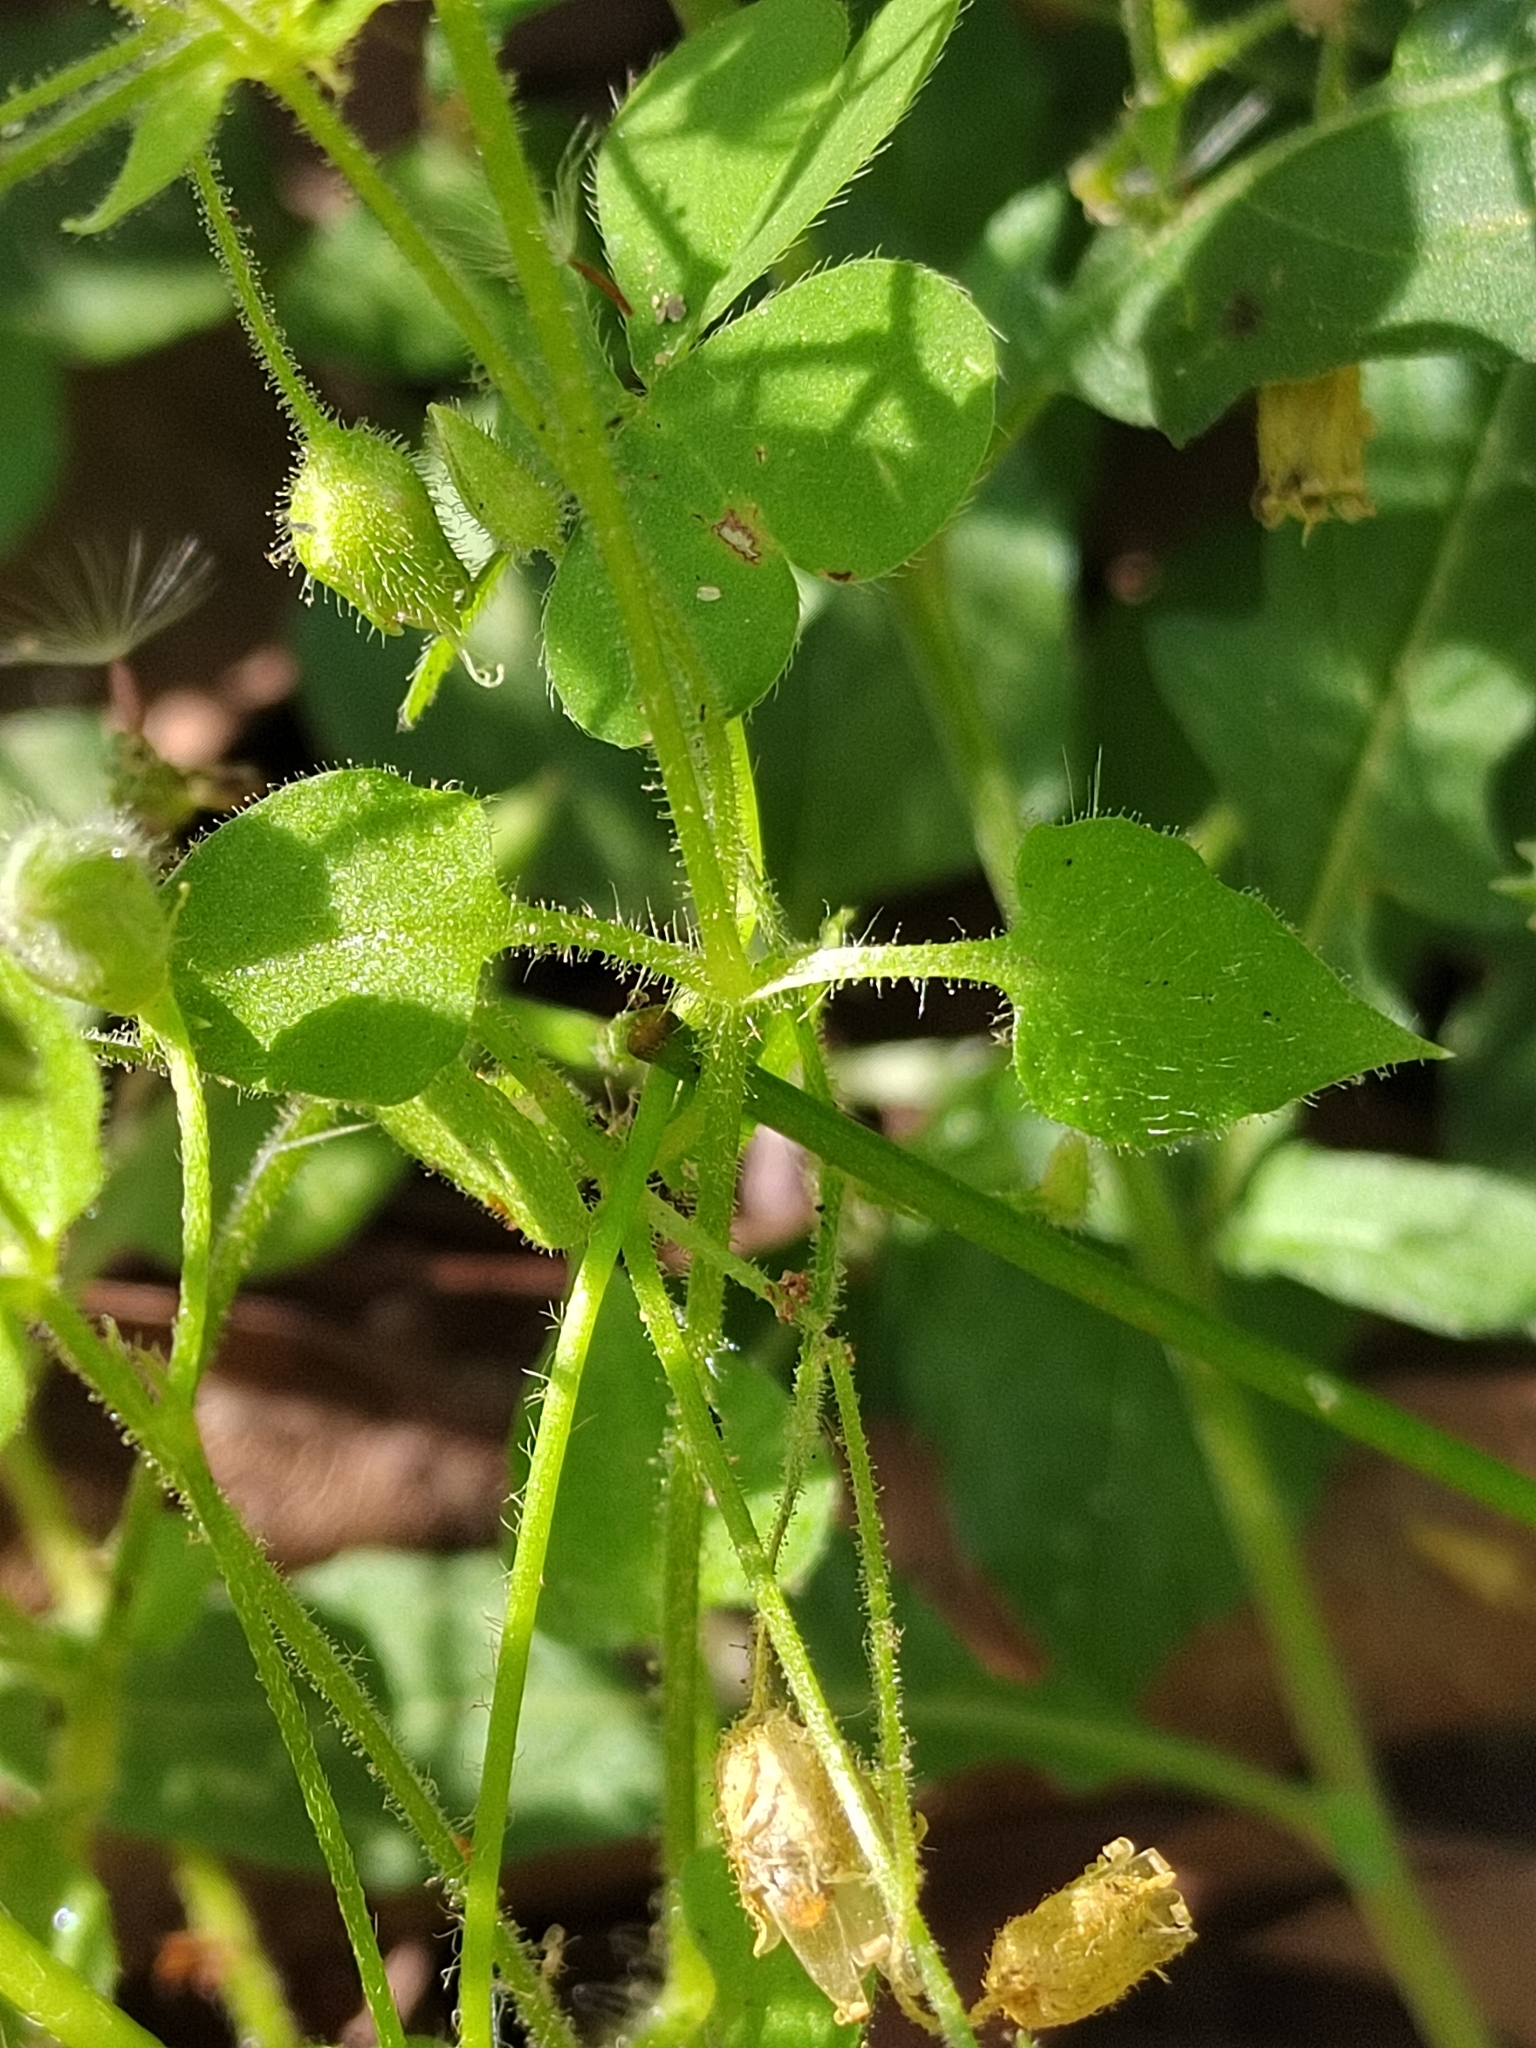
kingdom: Plantae
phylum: Tracheophyta
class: Magnoliopsida
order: Caryophyllales
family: Caryophyllaceae
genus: Stellaria
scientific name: Stellaria cuspidata
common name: Mexican chickweed
